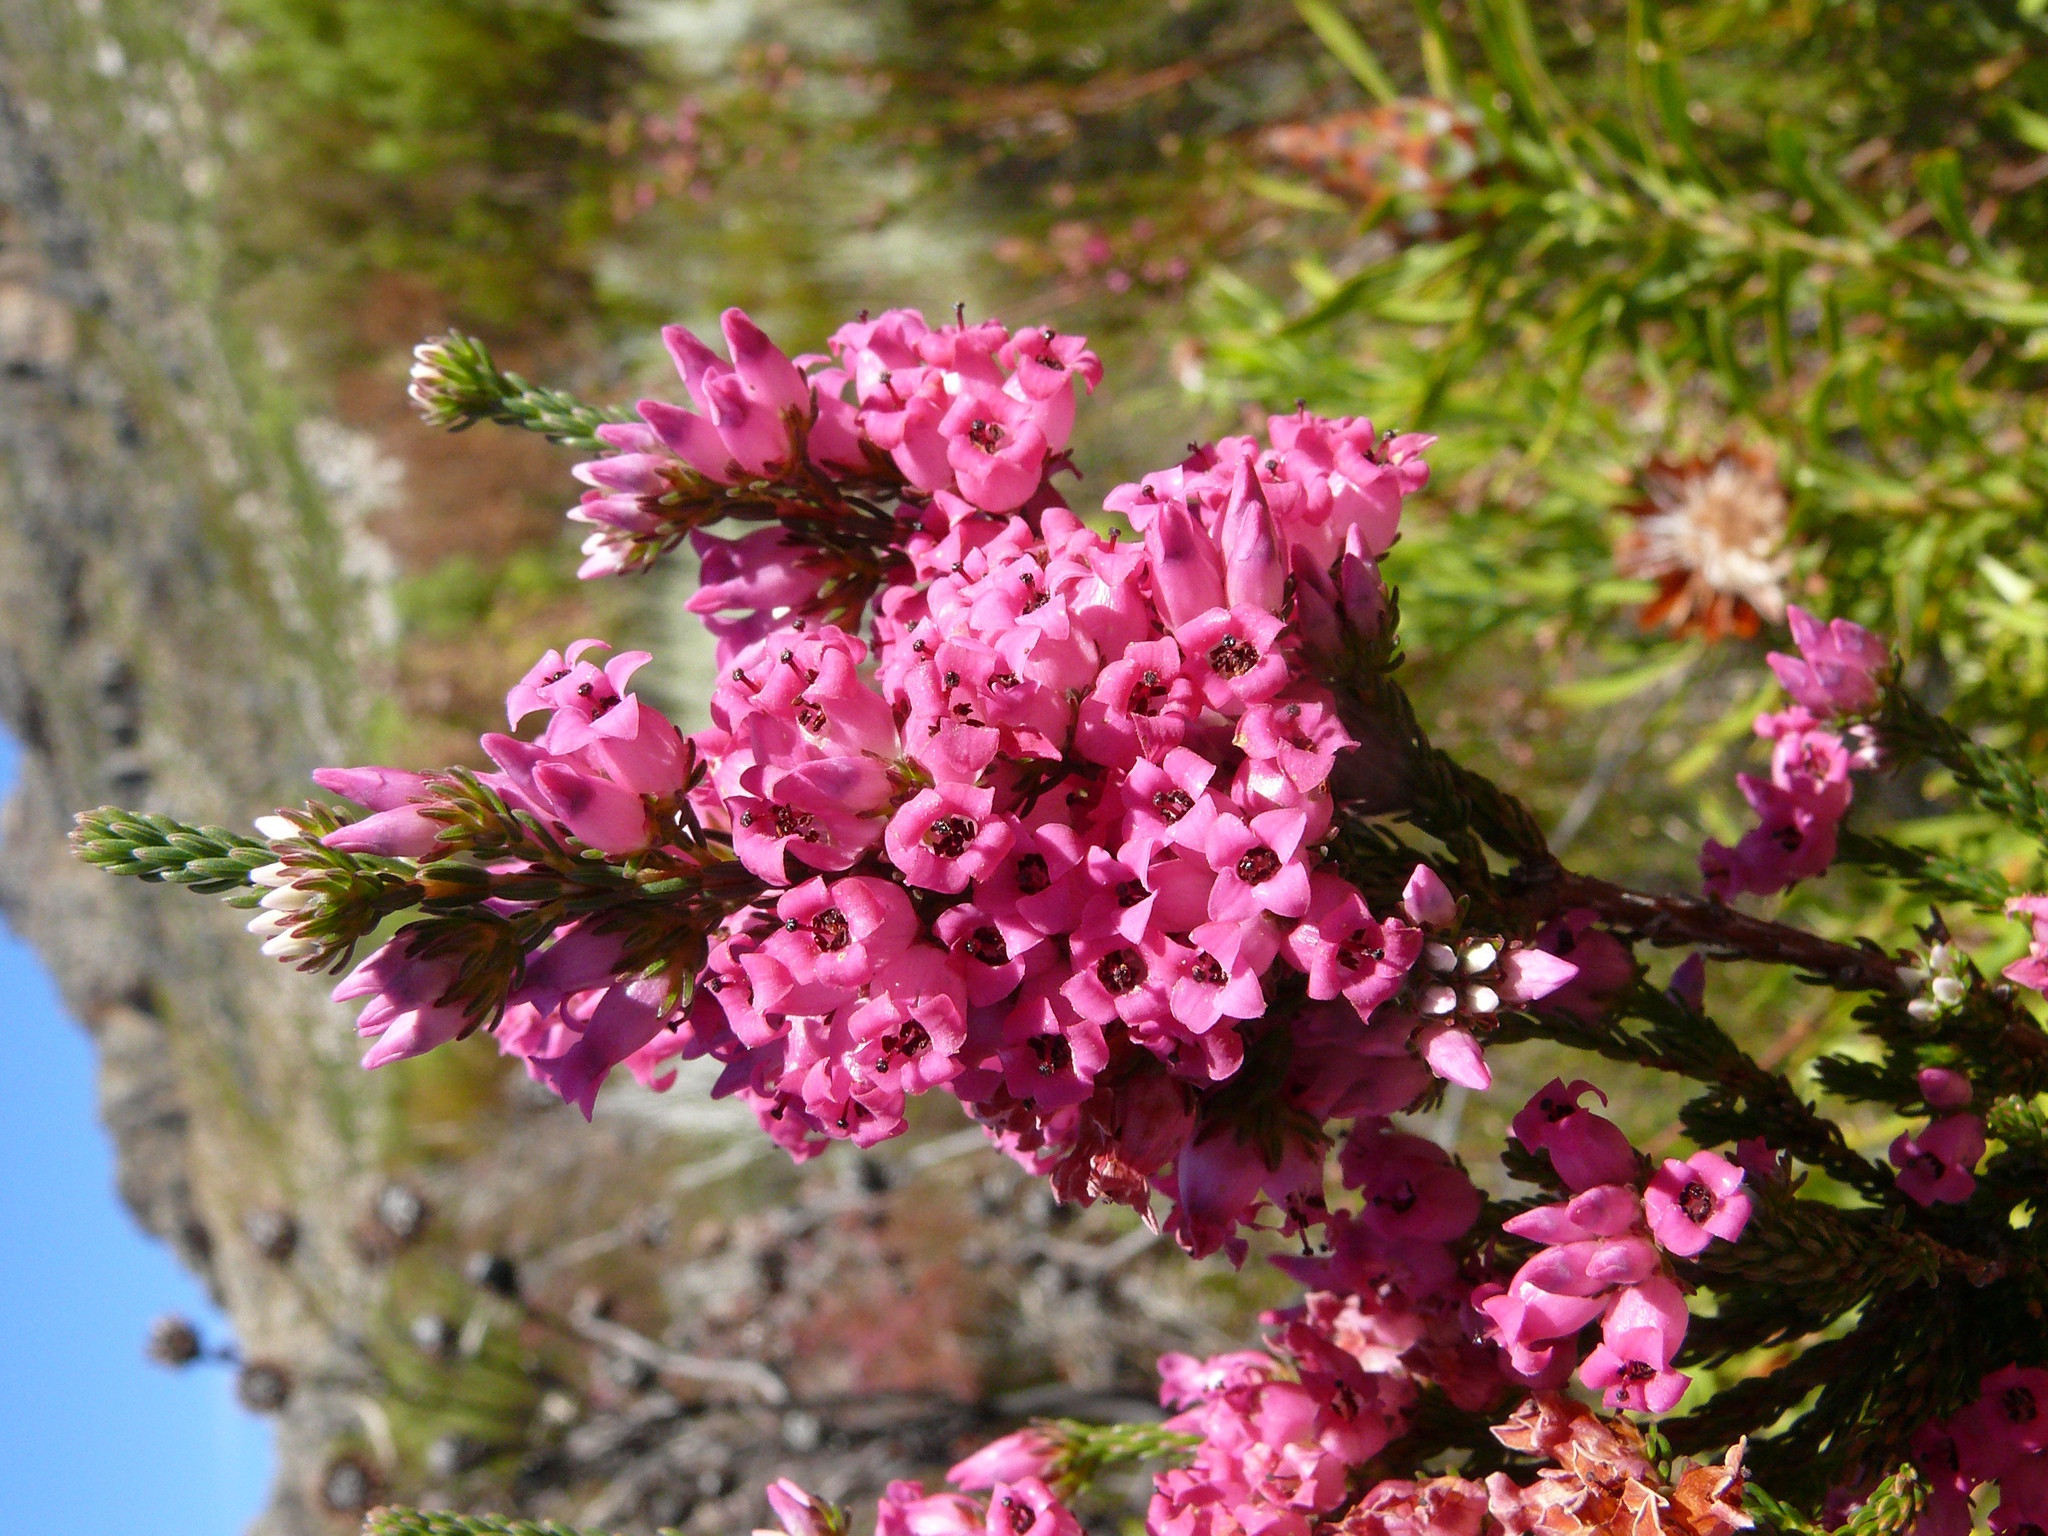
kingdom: Plantae
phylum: Tracheophyta
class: Magnoliopsida
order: Ericales
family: Ericaceae
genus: Erica
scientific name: Erica daphniflora
